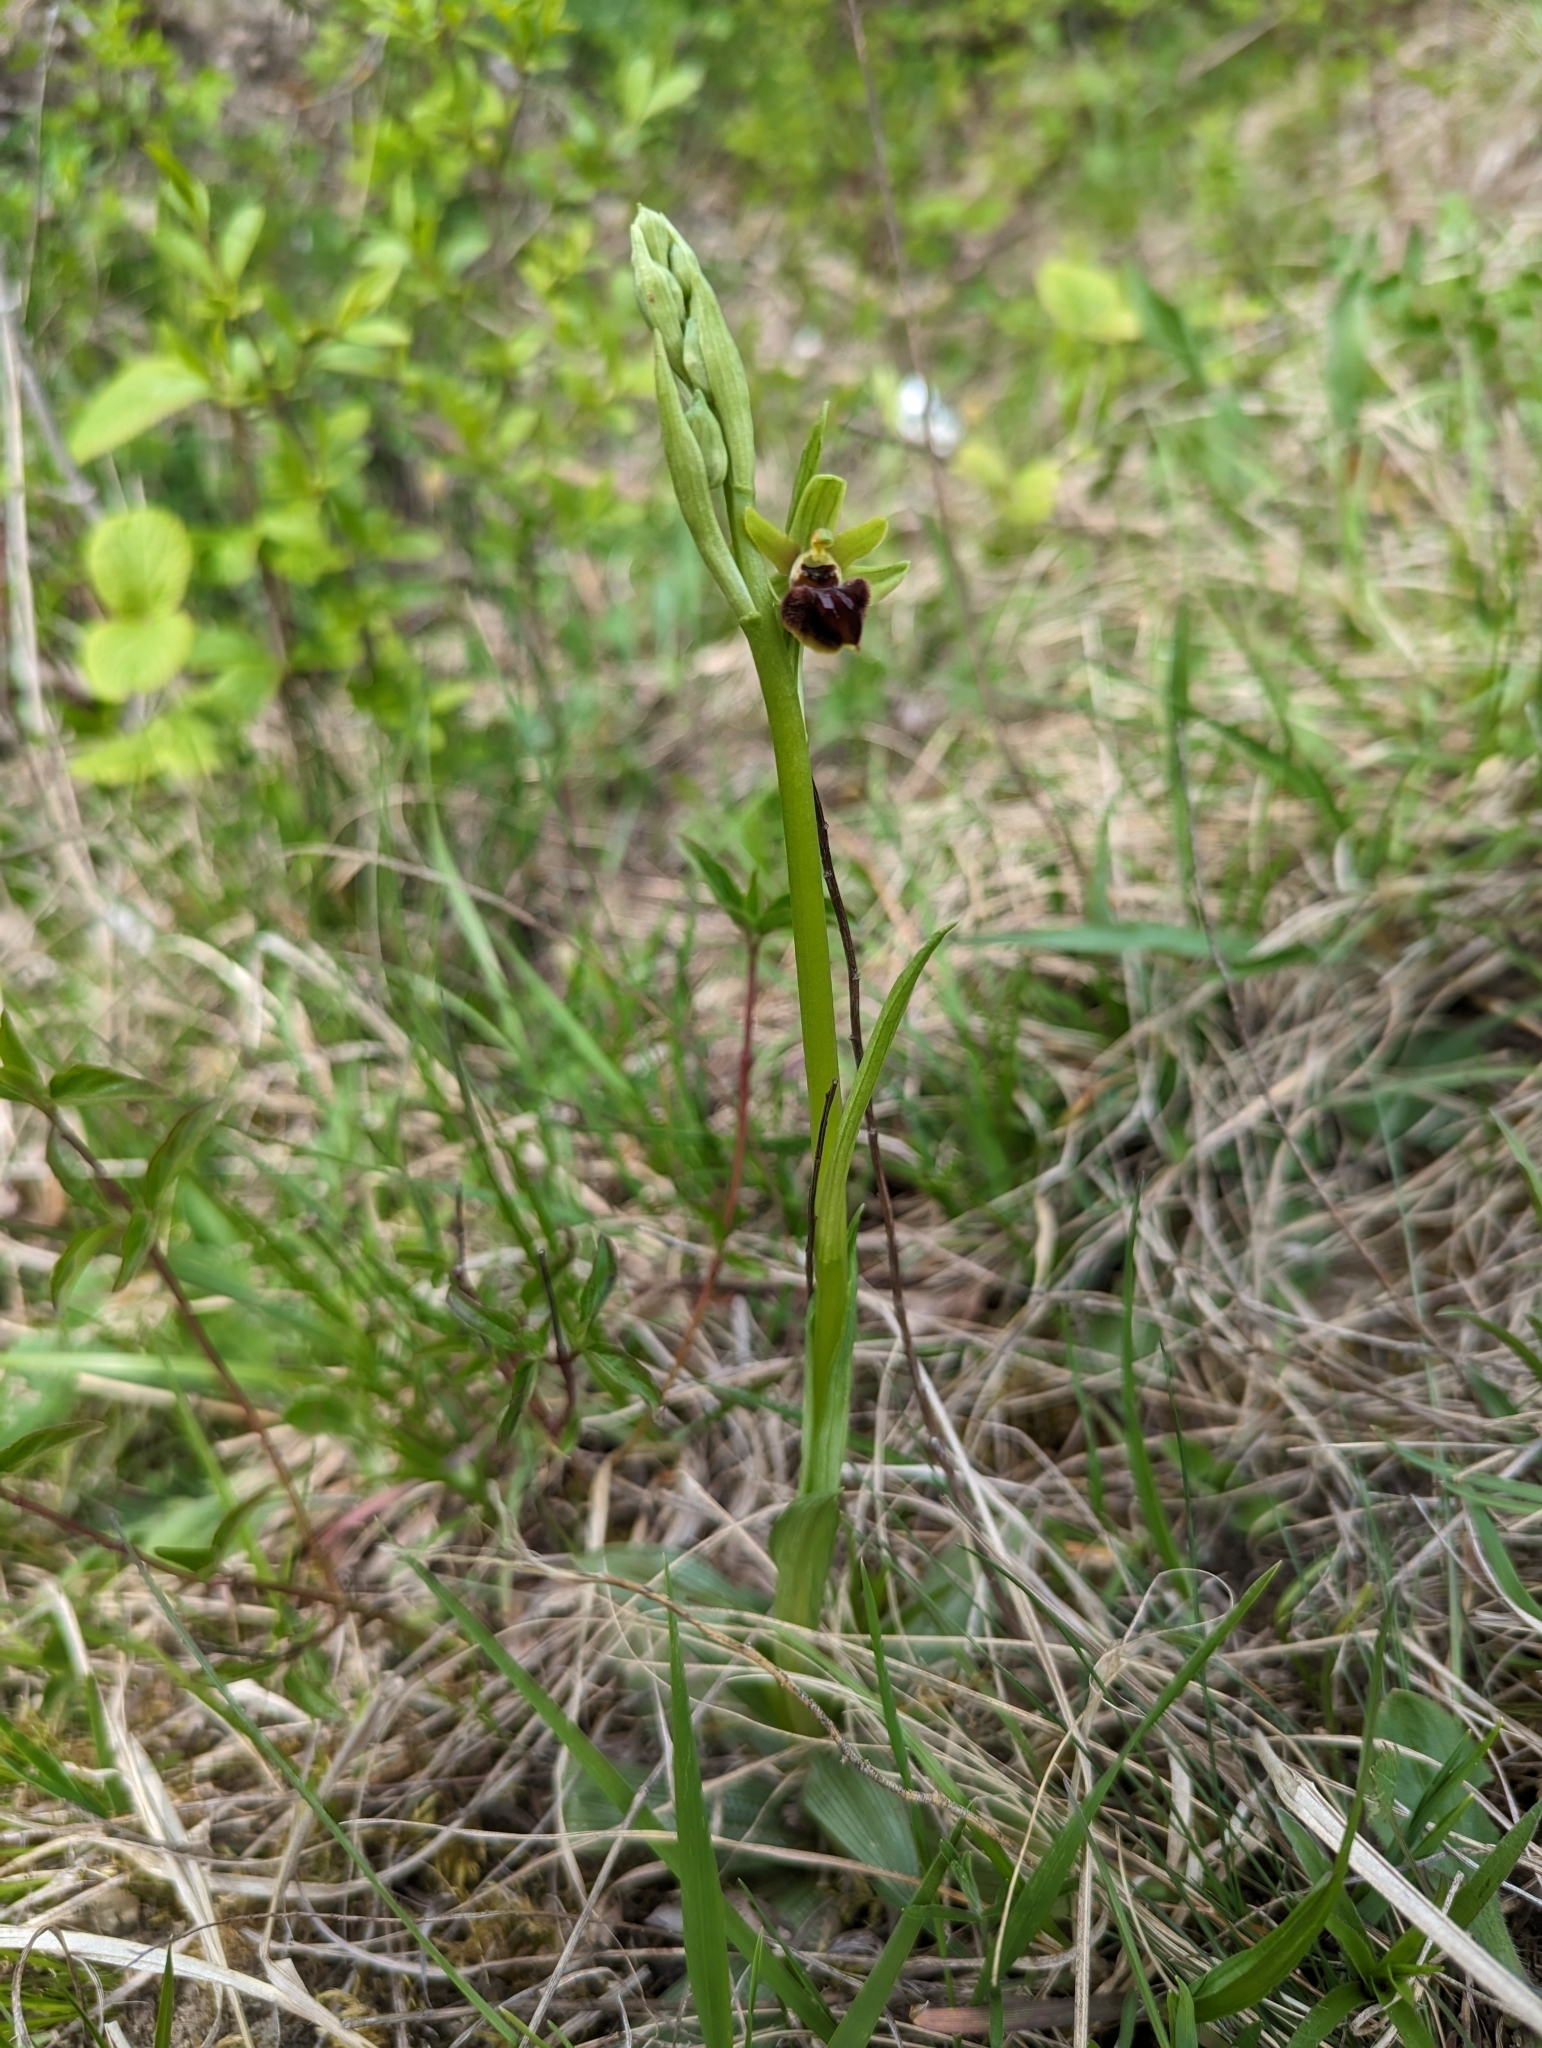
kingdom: Plantae
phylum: Tracheophyta
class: Liliopsida
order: Asparagales
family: Orchidaceae
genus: Ophrys
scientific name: Ophrys sphegodes
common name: Early spider-orchid
